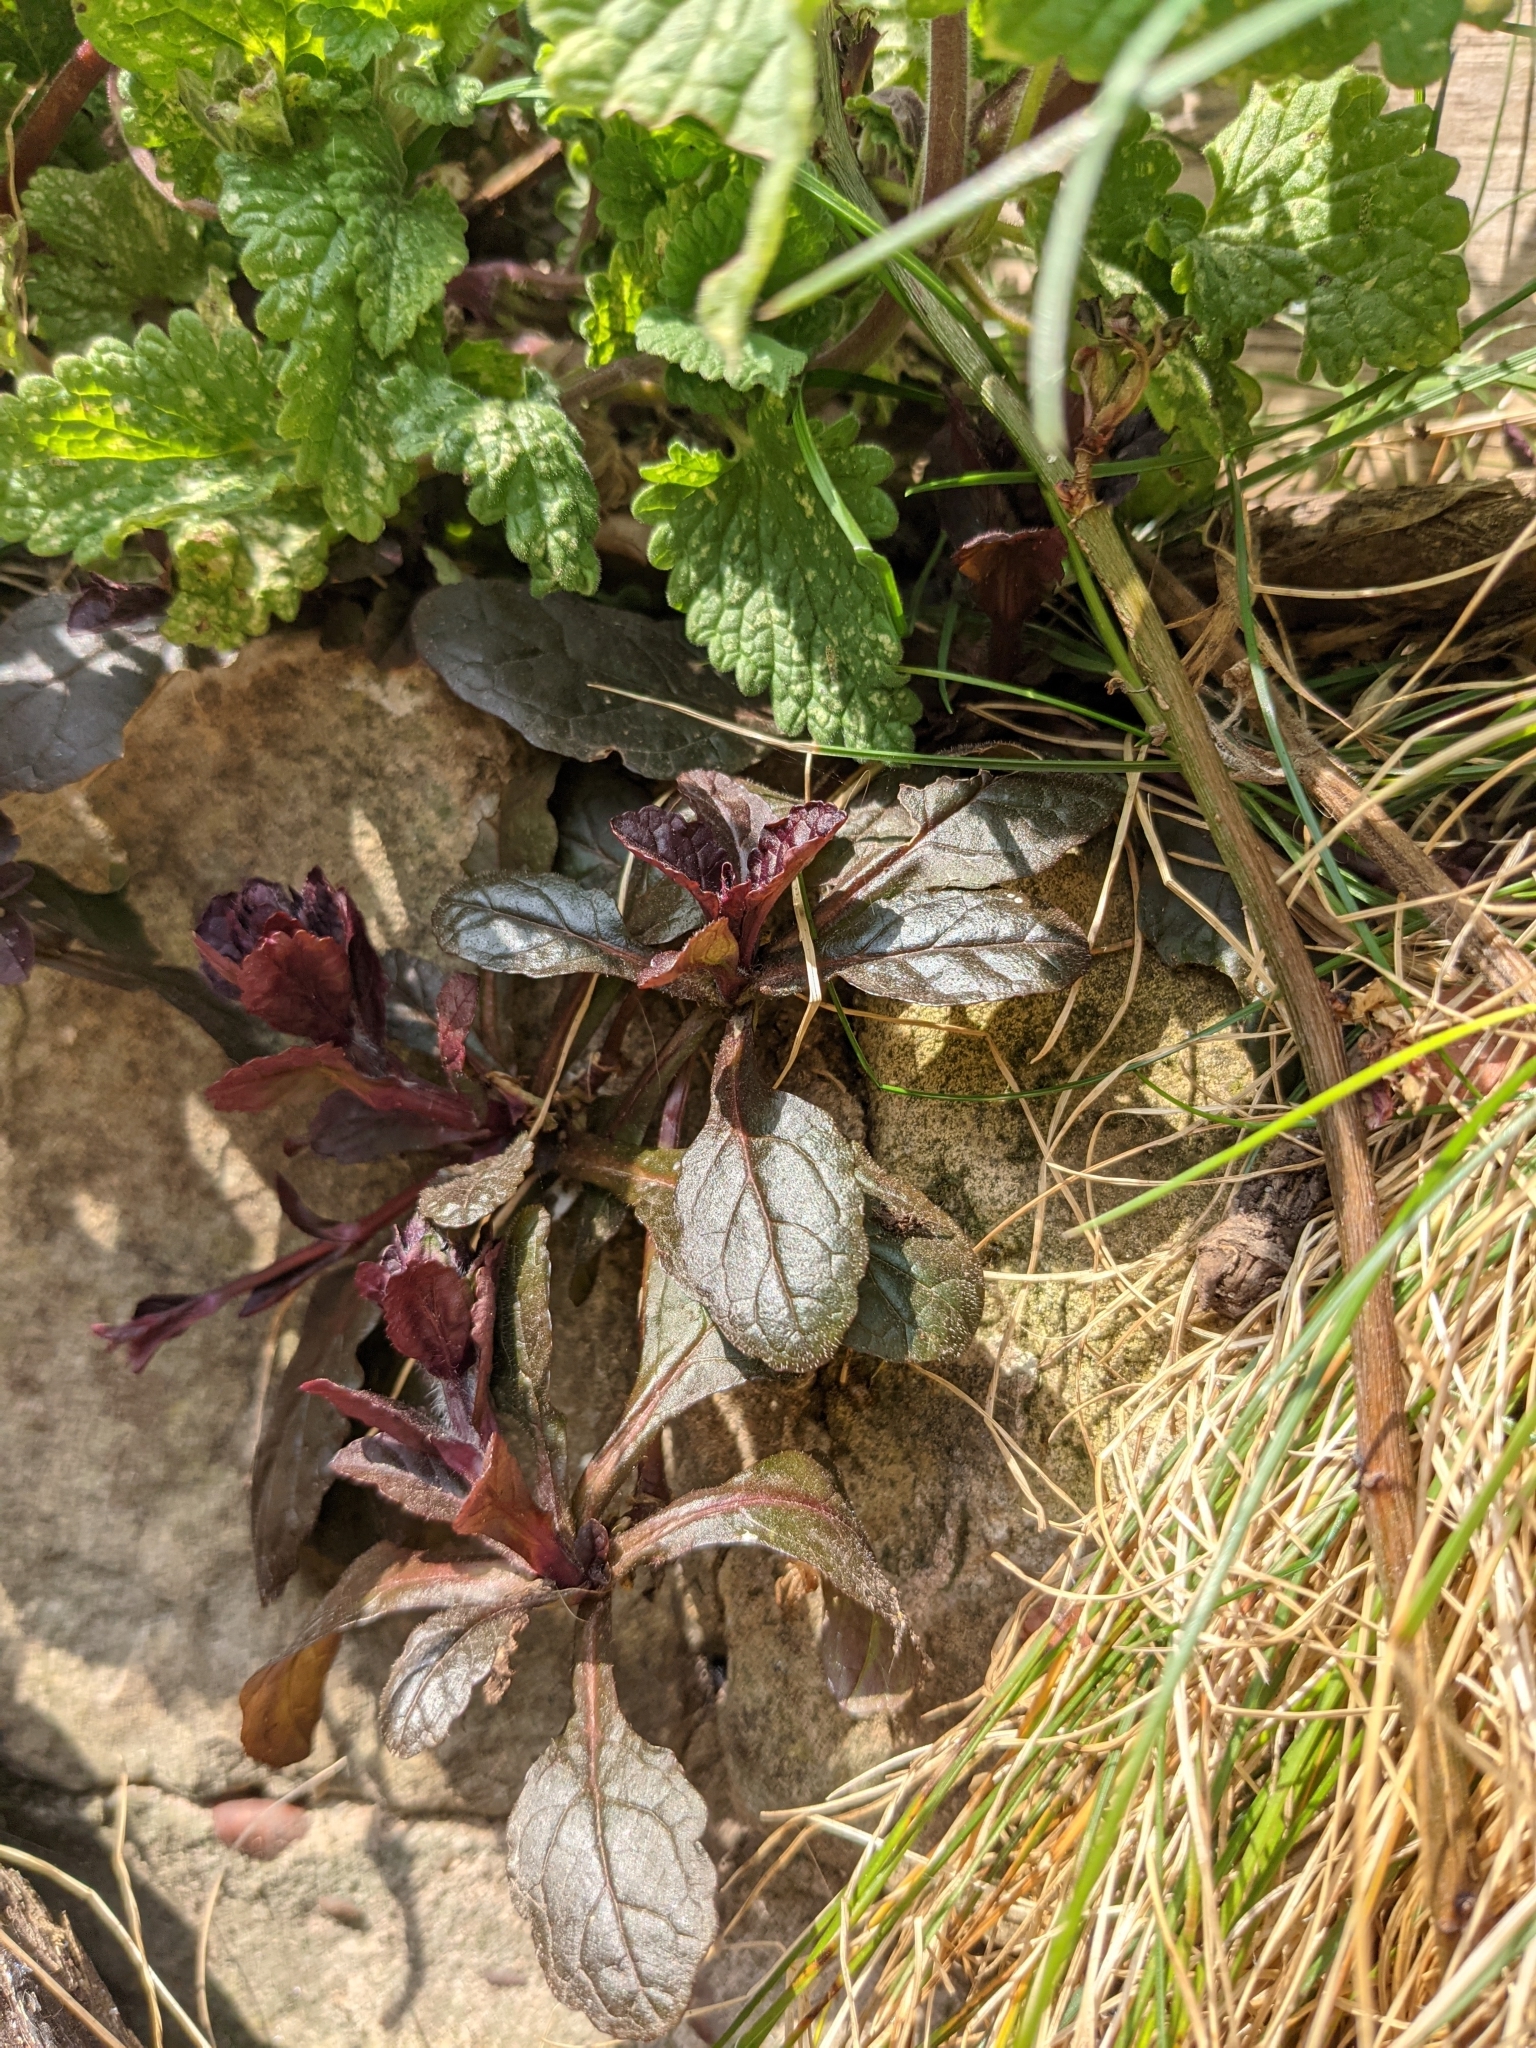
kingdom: Plantae
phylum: Tracheophyta
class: Magnoliopsida
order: Lamiales
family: Lamiaceae
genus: Ajuga
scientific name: Ajuga reptans
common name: Bugle
